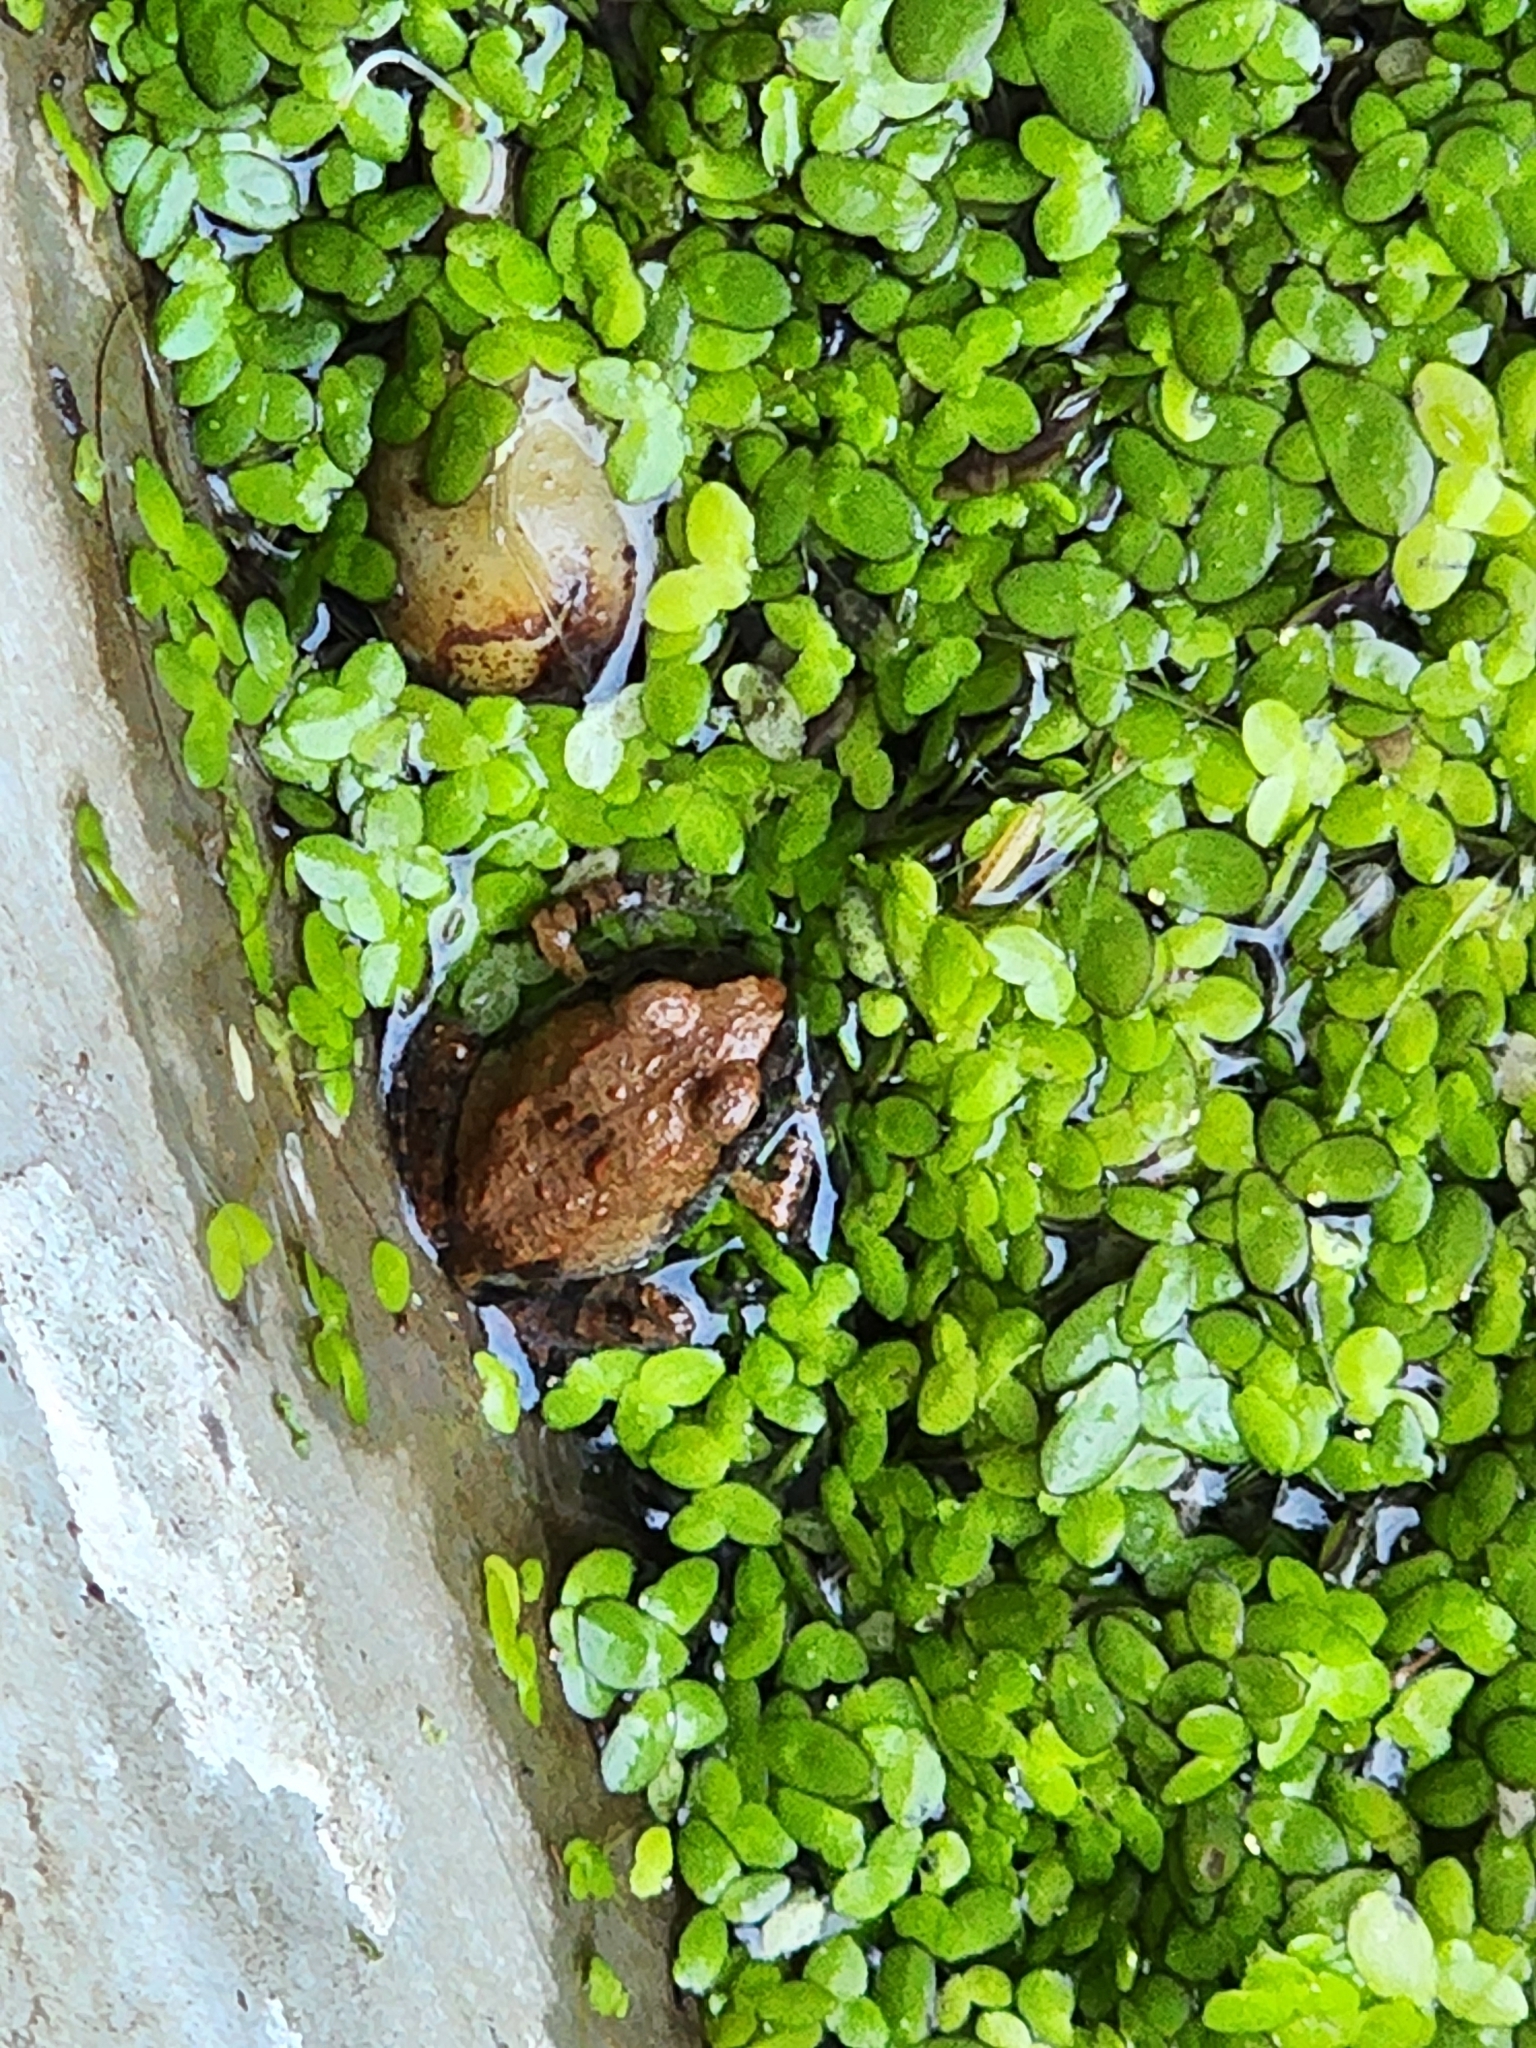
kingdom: Animalia
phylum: Chordata
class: Amphibia
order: Anura
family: Limnodynastidae
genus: Platyplectrum
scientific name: Platyplectrum ornatum
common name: Ornate burrowing frog
